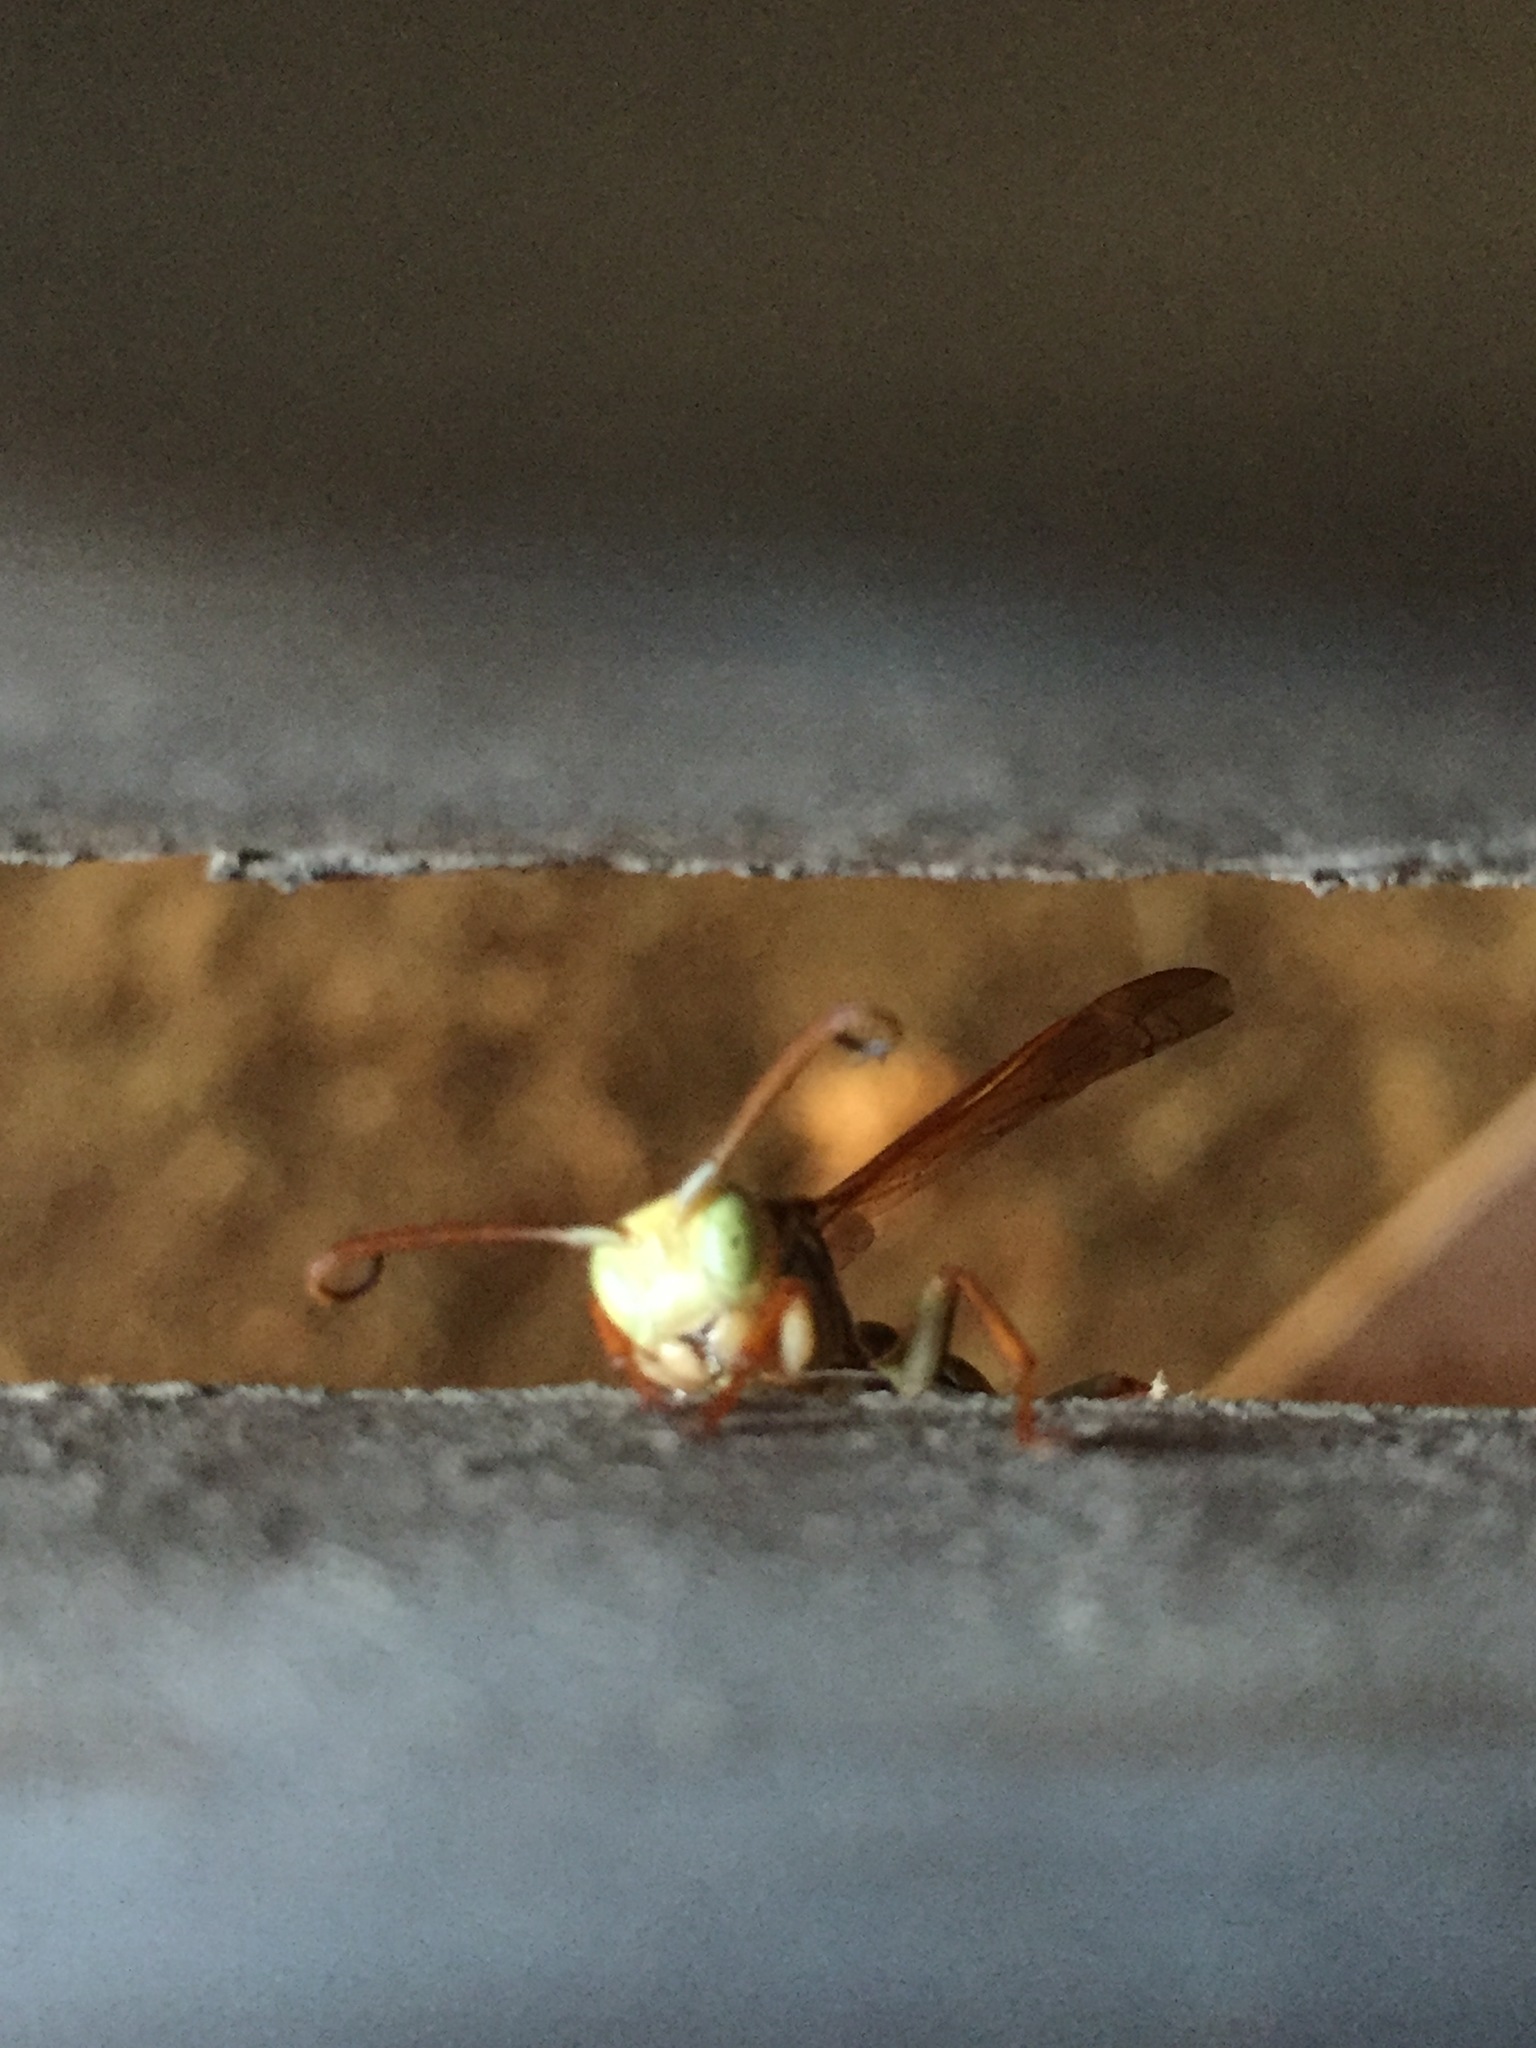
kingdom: Animalia
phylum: Arthropoda
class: Insecta
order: Hymenoptera
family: Vespidae
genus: Mischocyttarus
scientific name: Mischocyttarus flavitarsis
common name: Wasp
